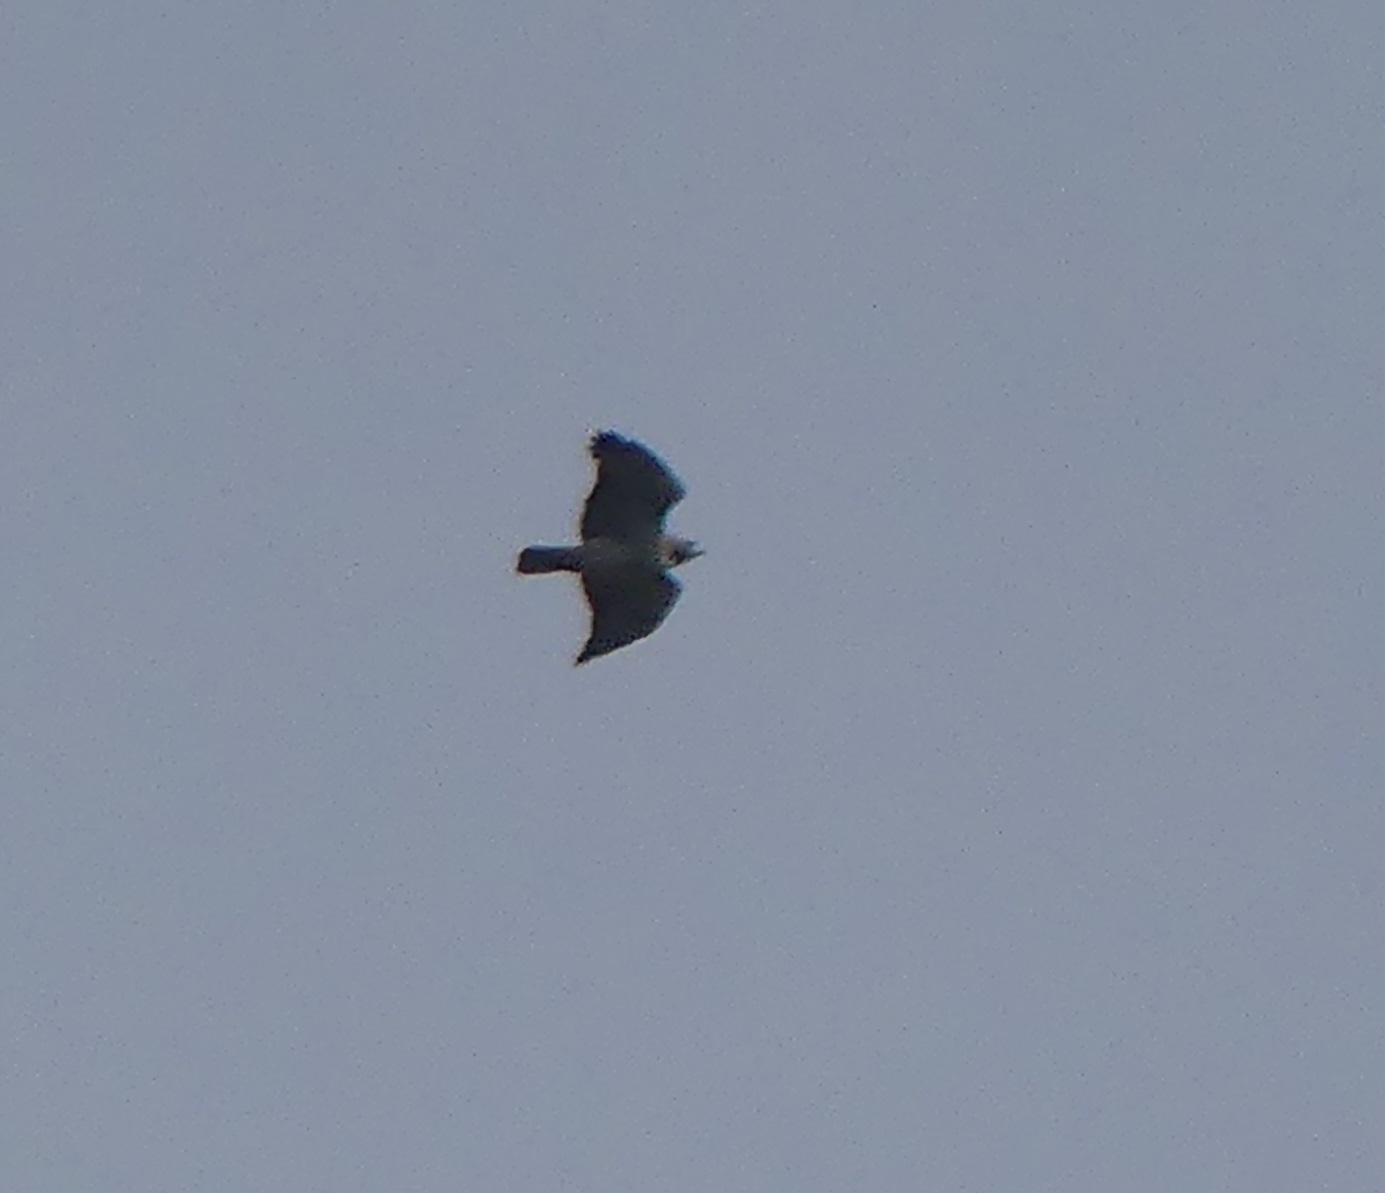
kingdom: Animalia
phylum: Chordata
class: Aves
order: Accipitriformes
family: Accipitridae
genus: Buteo
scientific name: Buteo jamaicensis
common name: Red-tailed hawk
